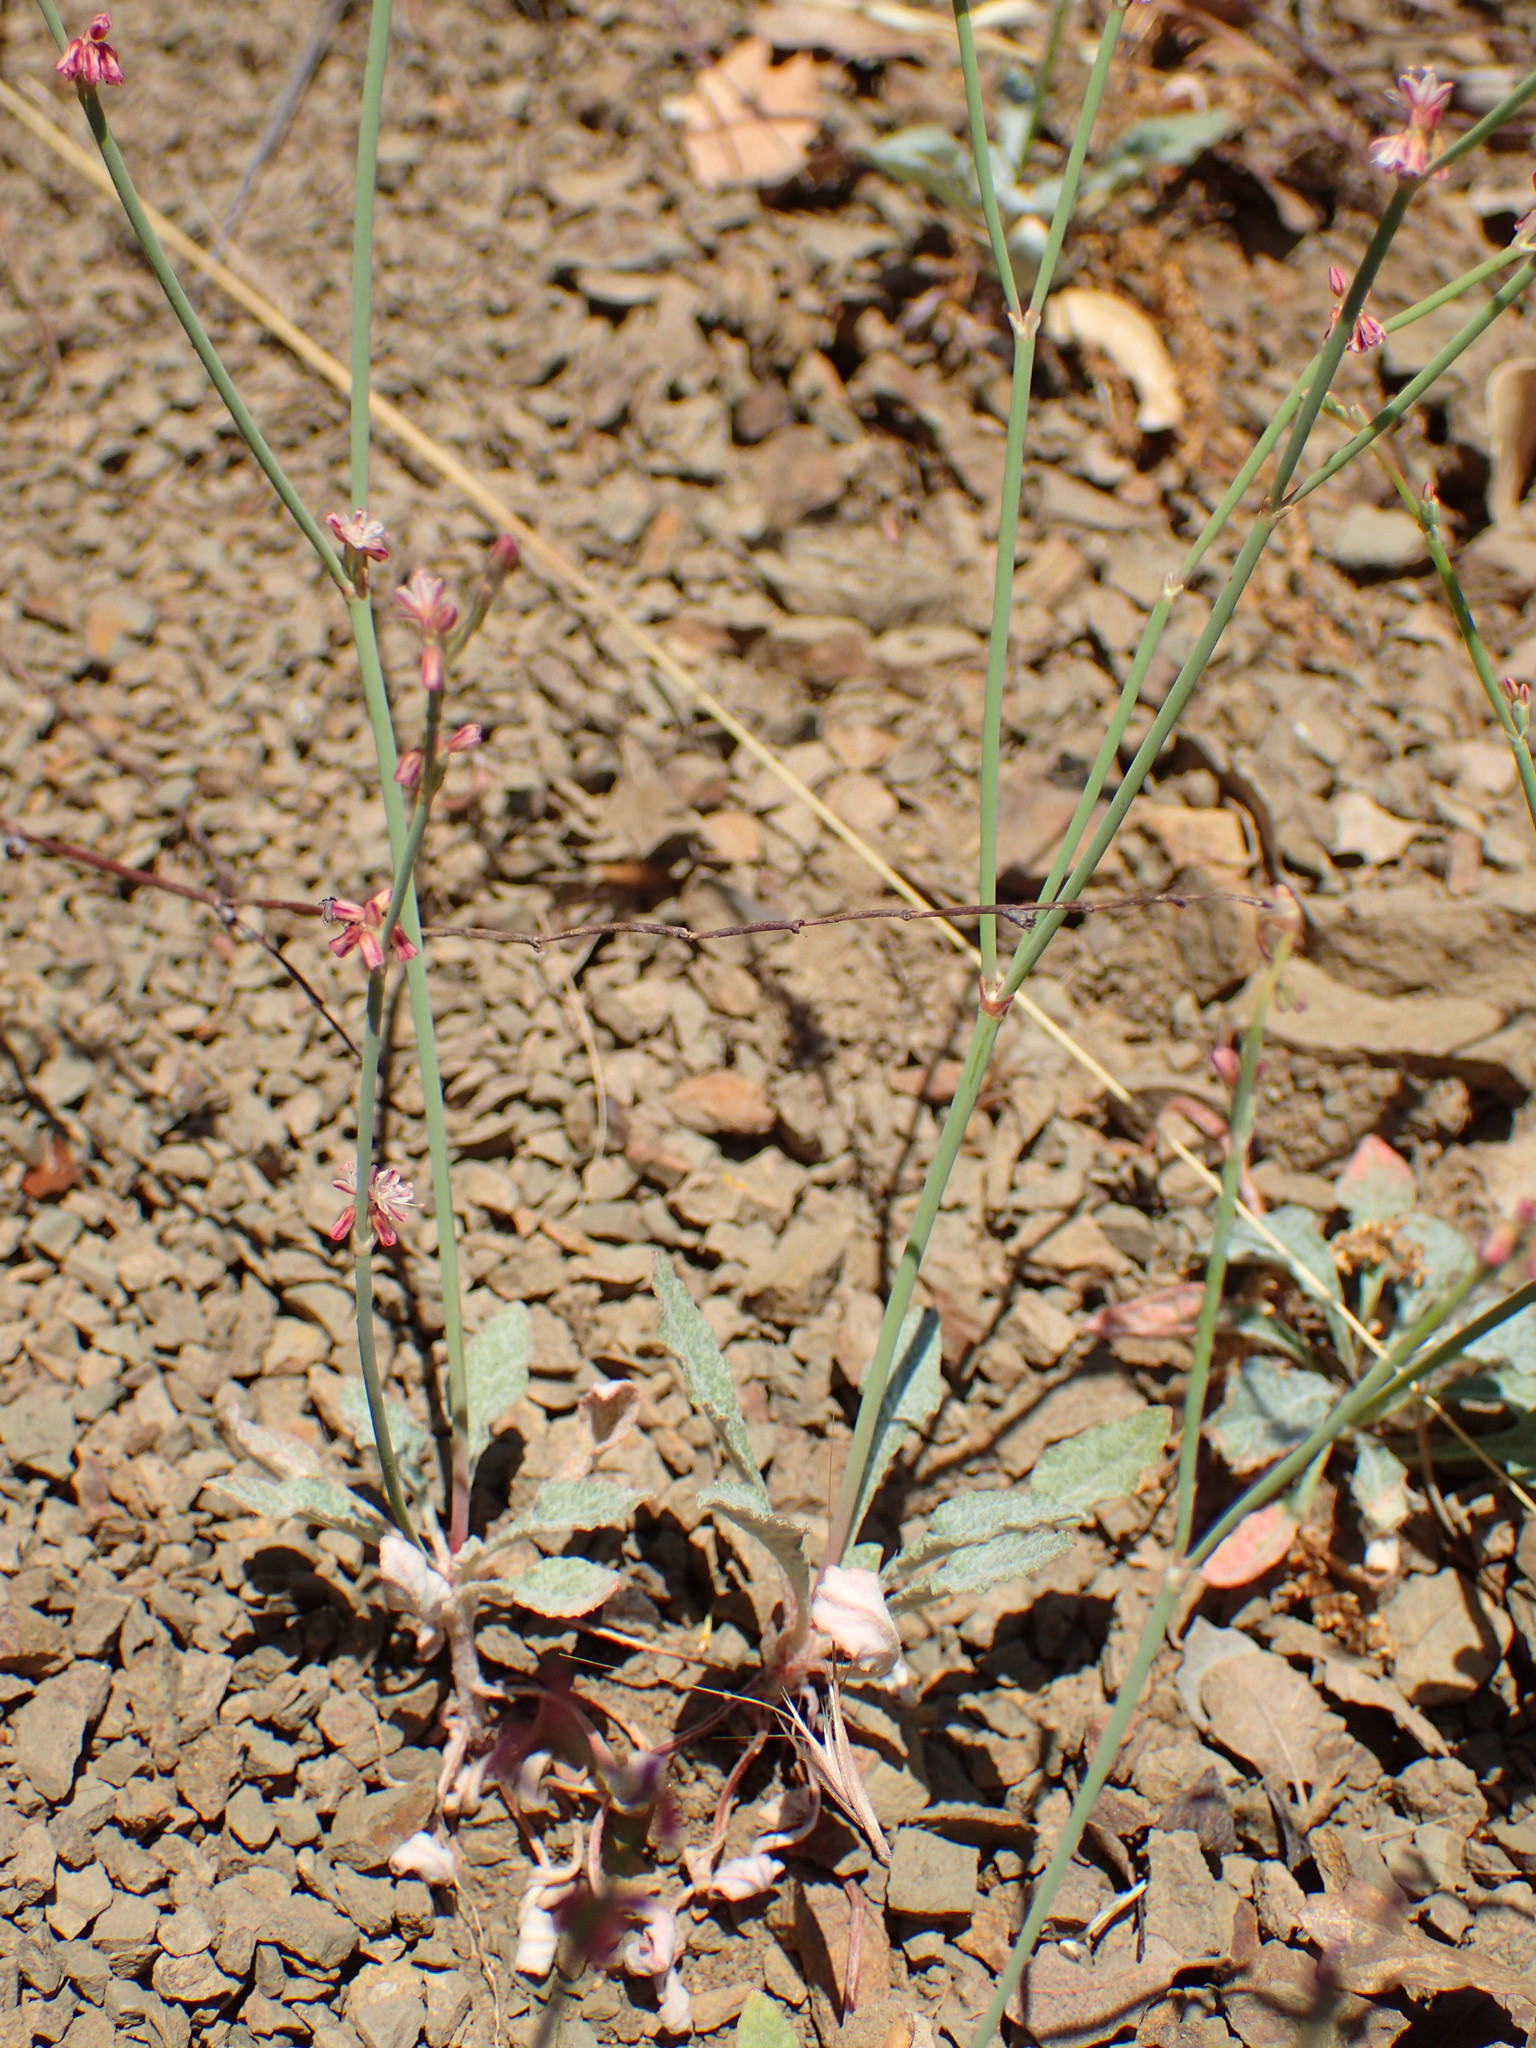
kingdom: Plantae
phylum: Tracheophyta
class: Magnoliopsida
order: Caryophyllales
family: Polygonaceae
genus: Eriogonum
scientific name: Eriogonum cithariforme
